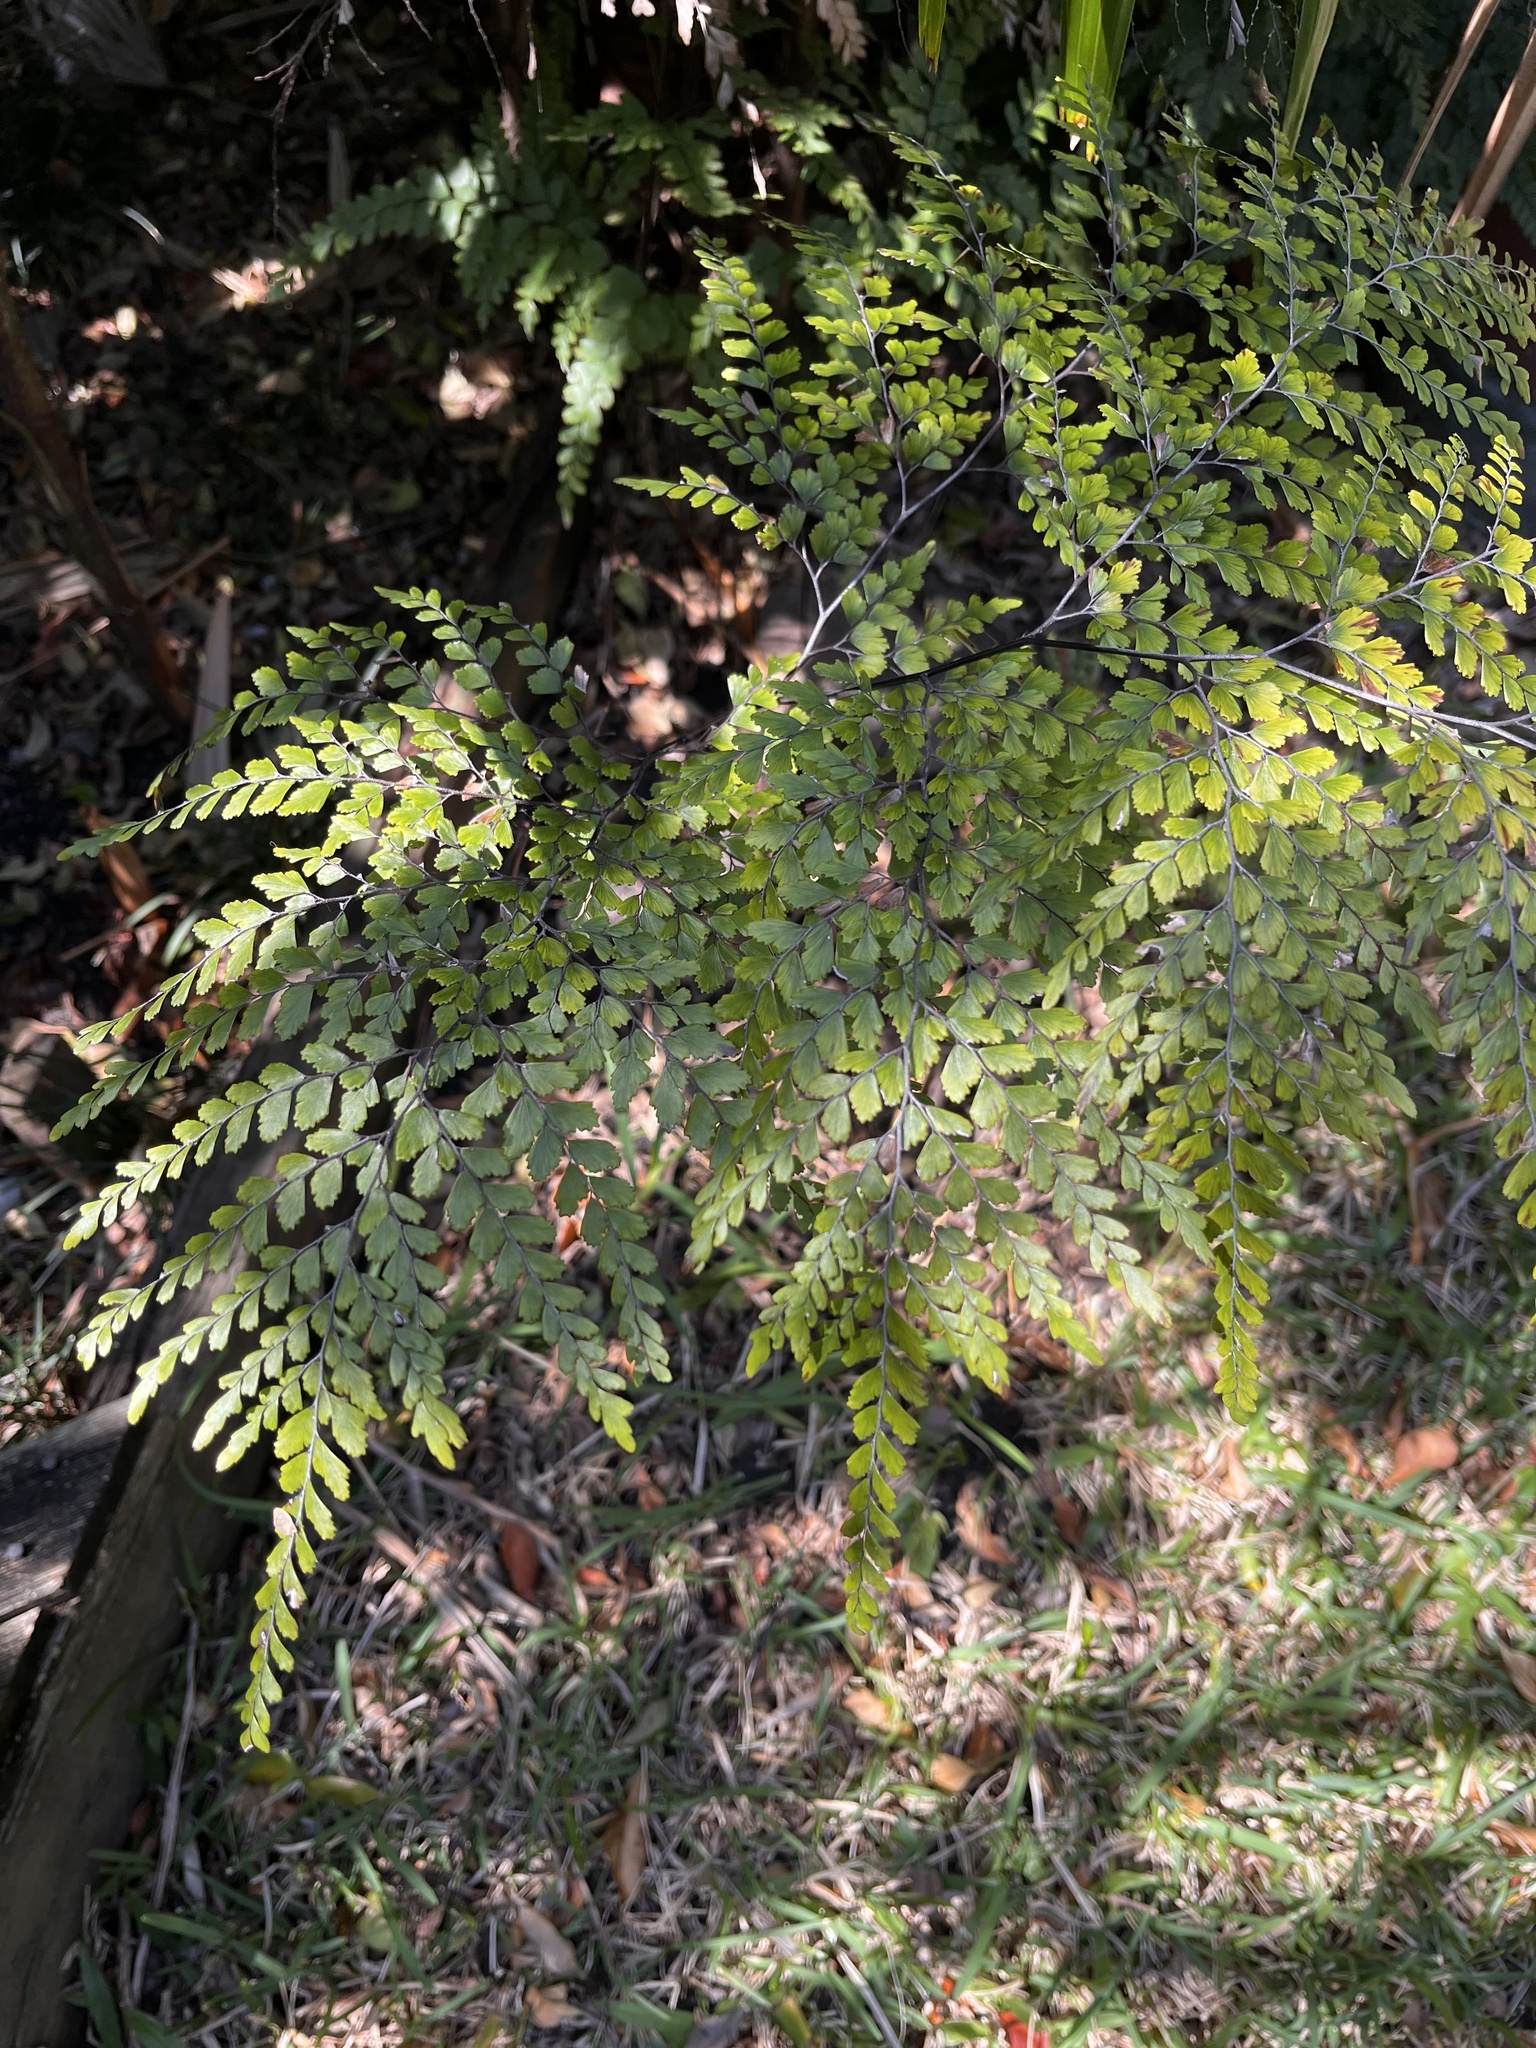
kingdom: Plantae
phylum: Tracheophyta
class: Polypodiopsida
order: Polypodiales
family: Pteridaceae
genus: Adiantum
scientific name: Adiantum formosum
